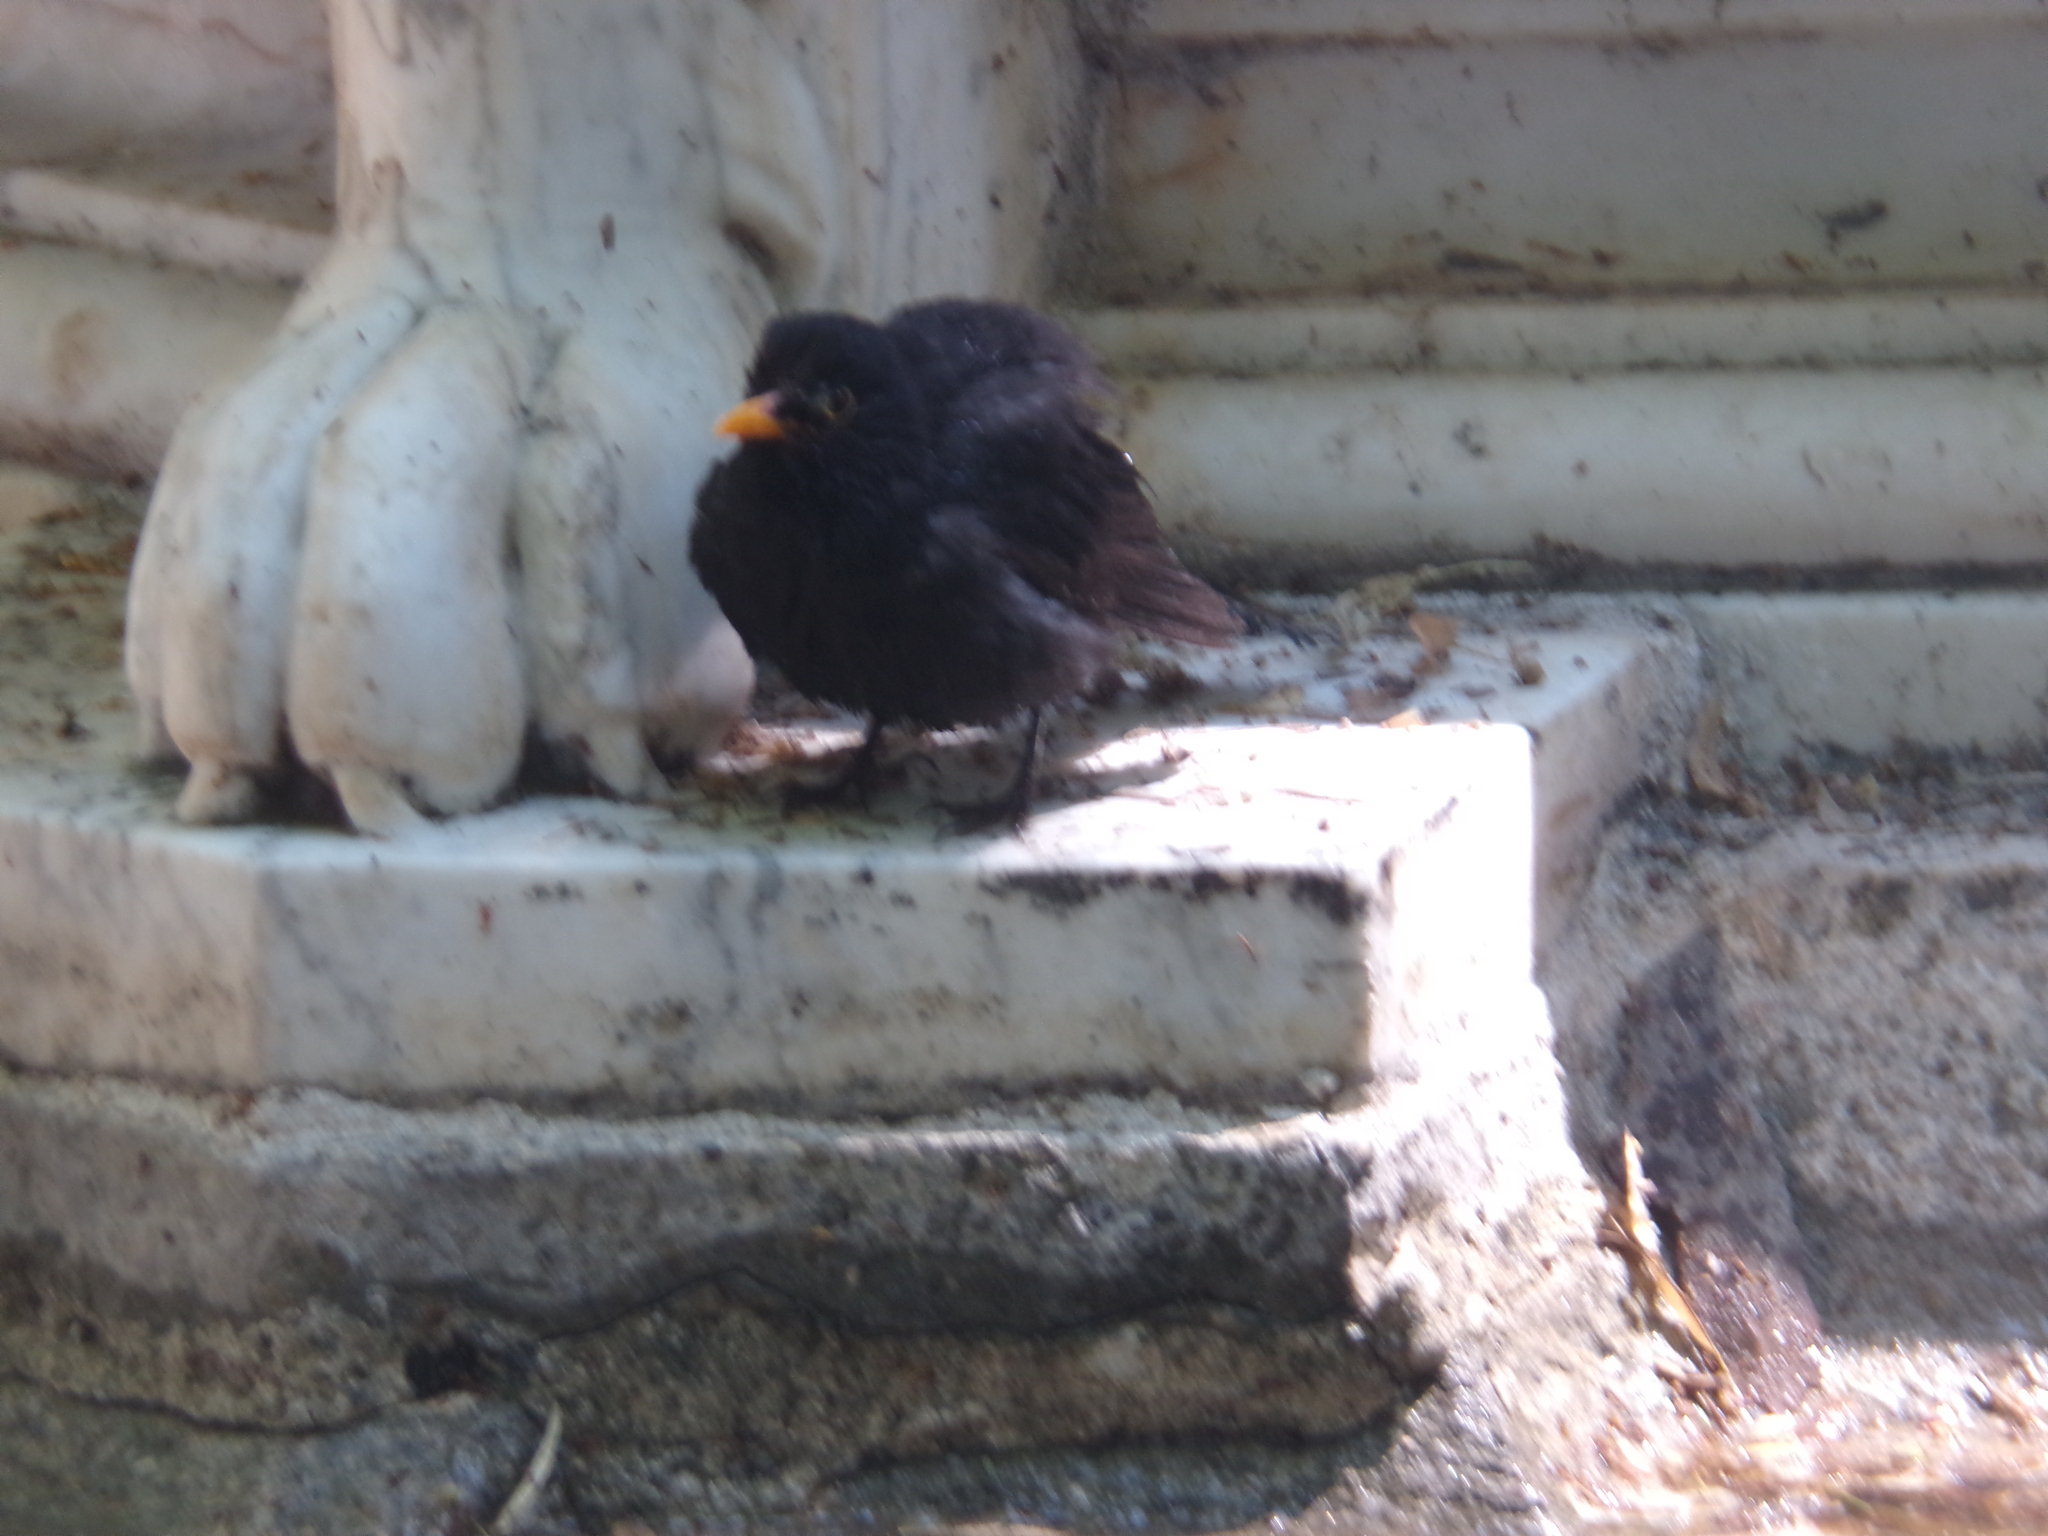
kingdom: Animalia
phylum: Chordata
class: Aves
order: Passeriformes
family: Turdidae
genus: Turdus
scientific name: Turdus merula
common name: Common blackbird
